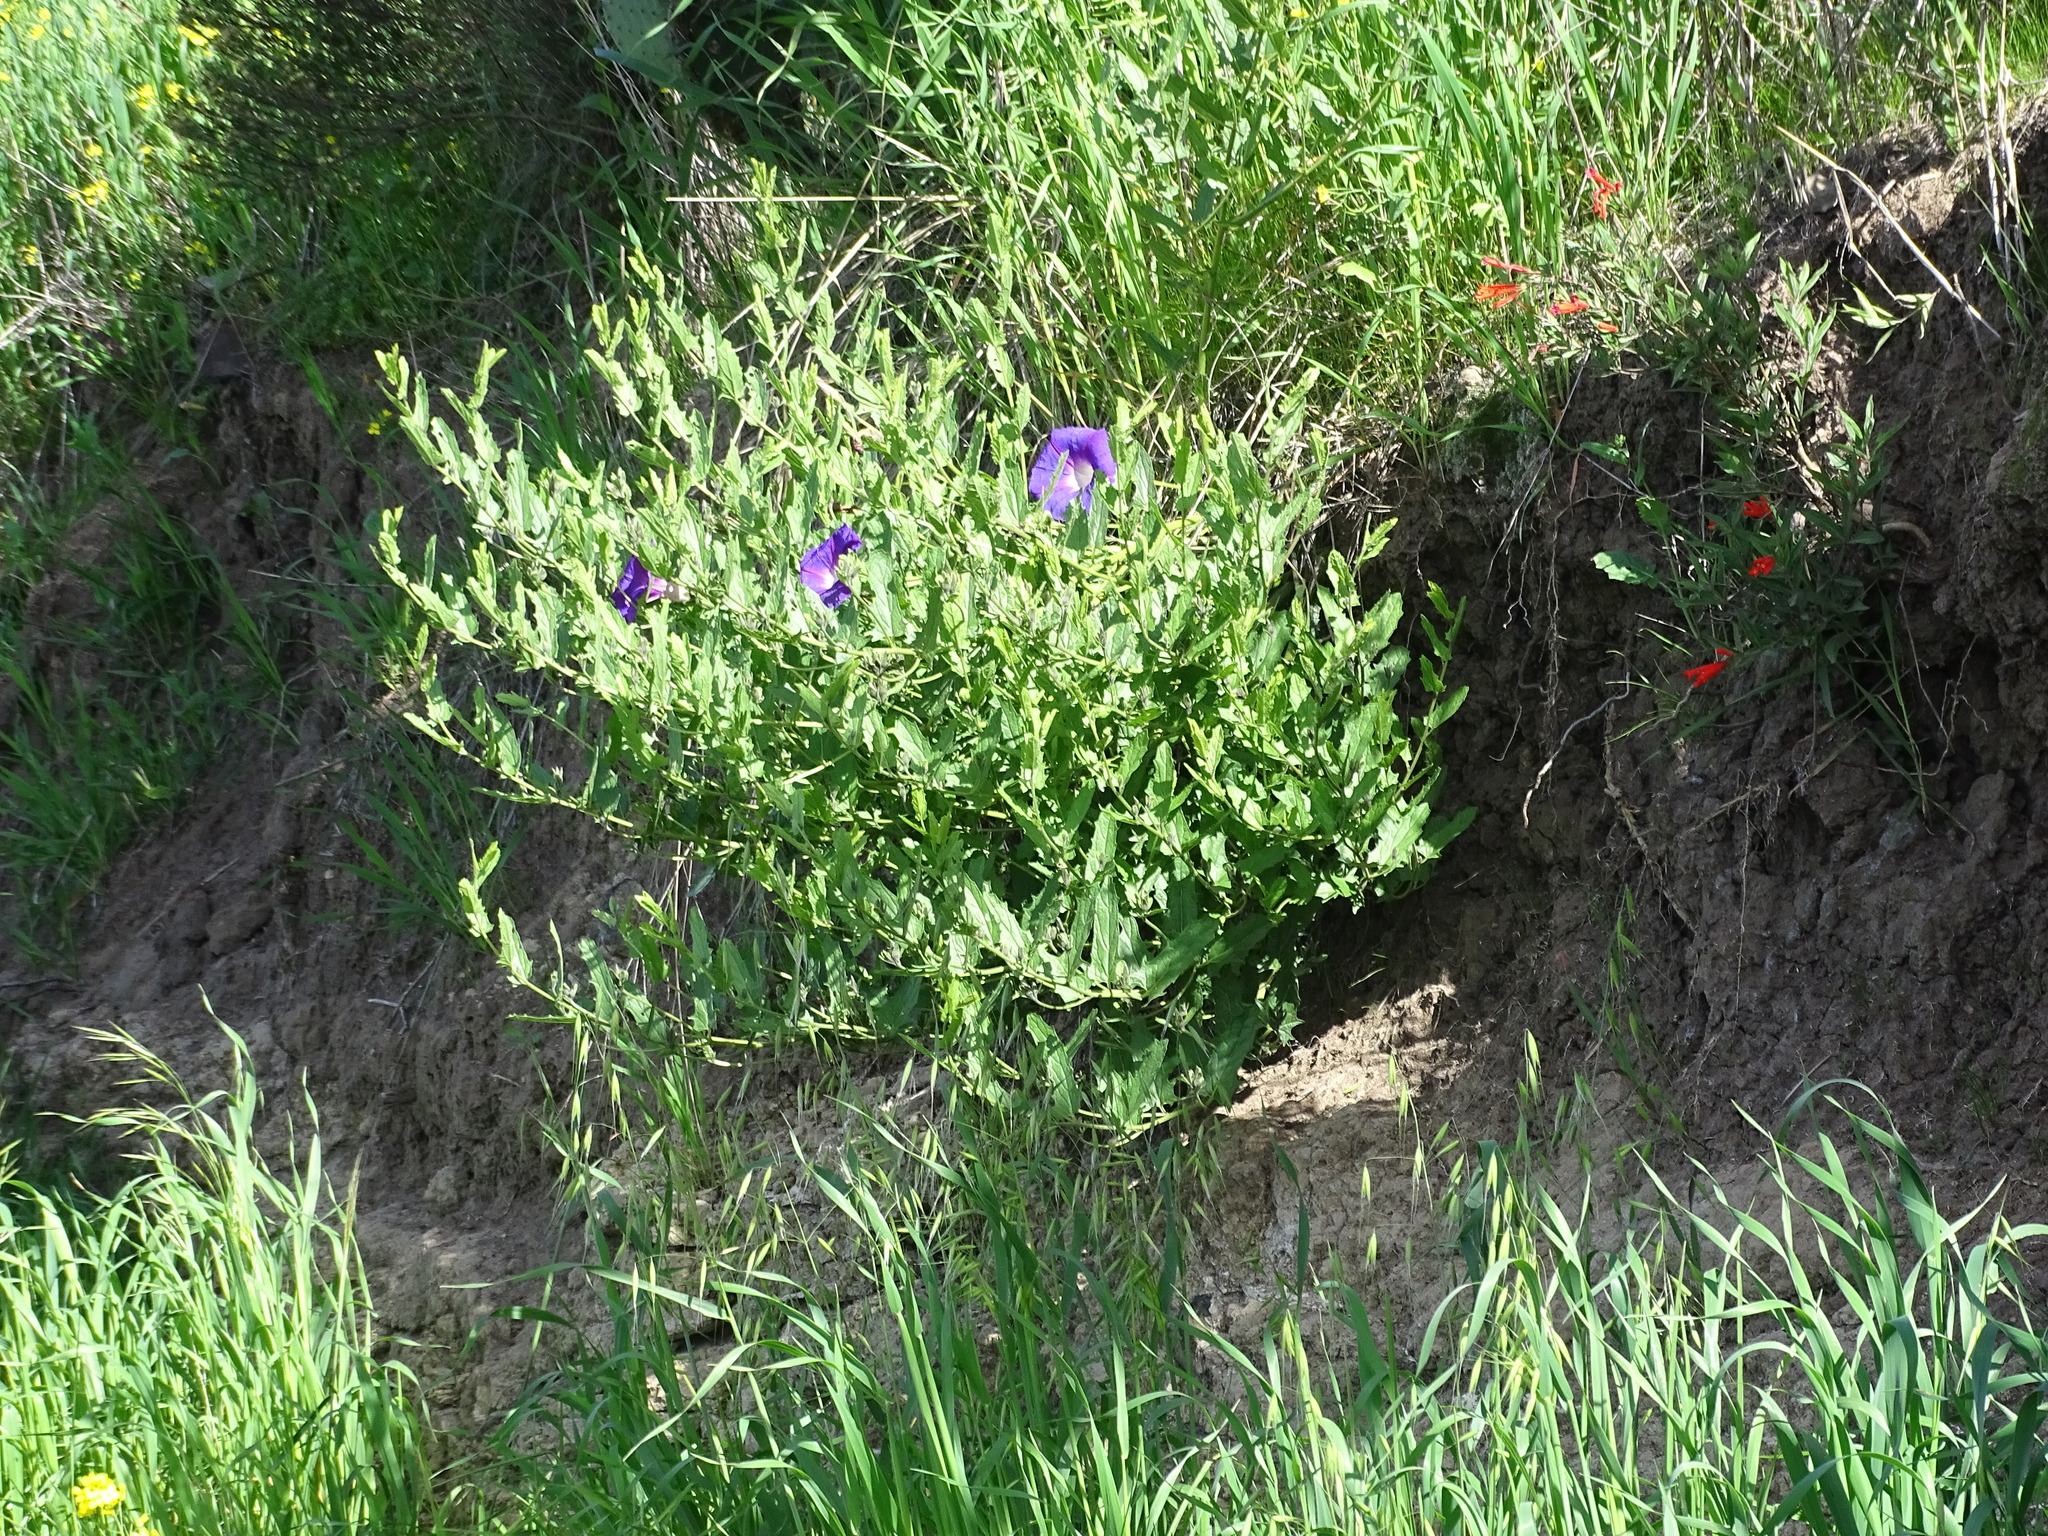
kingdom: Plantae
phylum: Tracheophyta
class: Magnoliopsida
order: Solanales
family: Convolvulaceae
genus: Ipomoea
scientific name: Ipomoea stans
